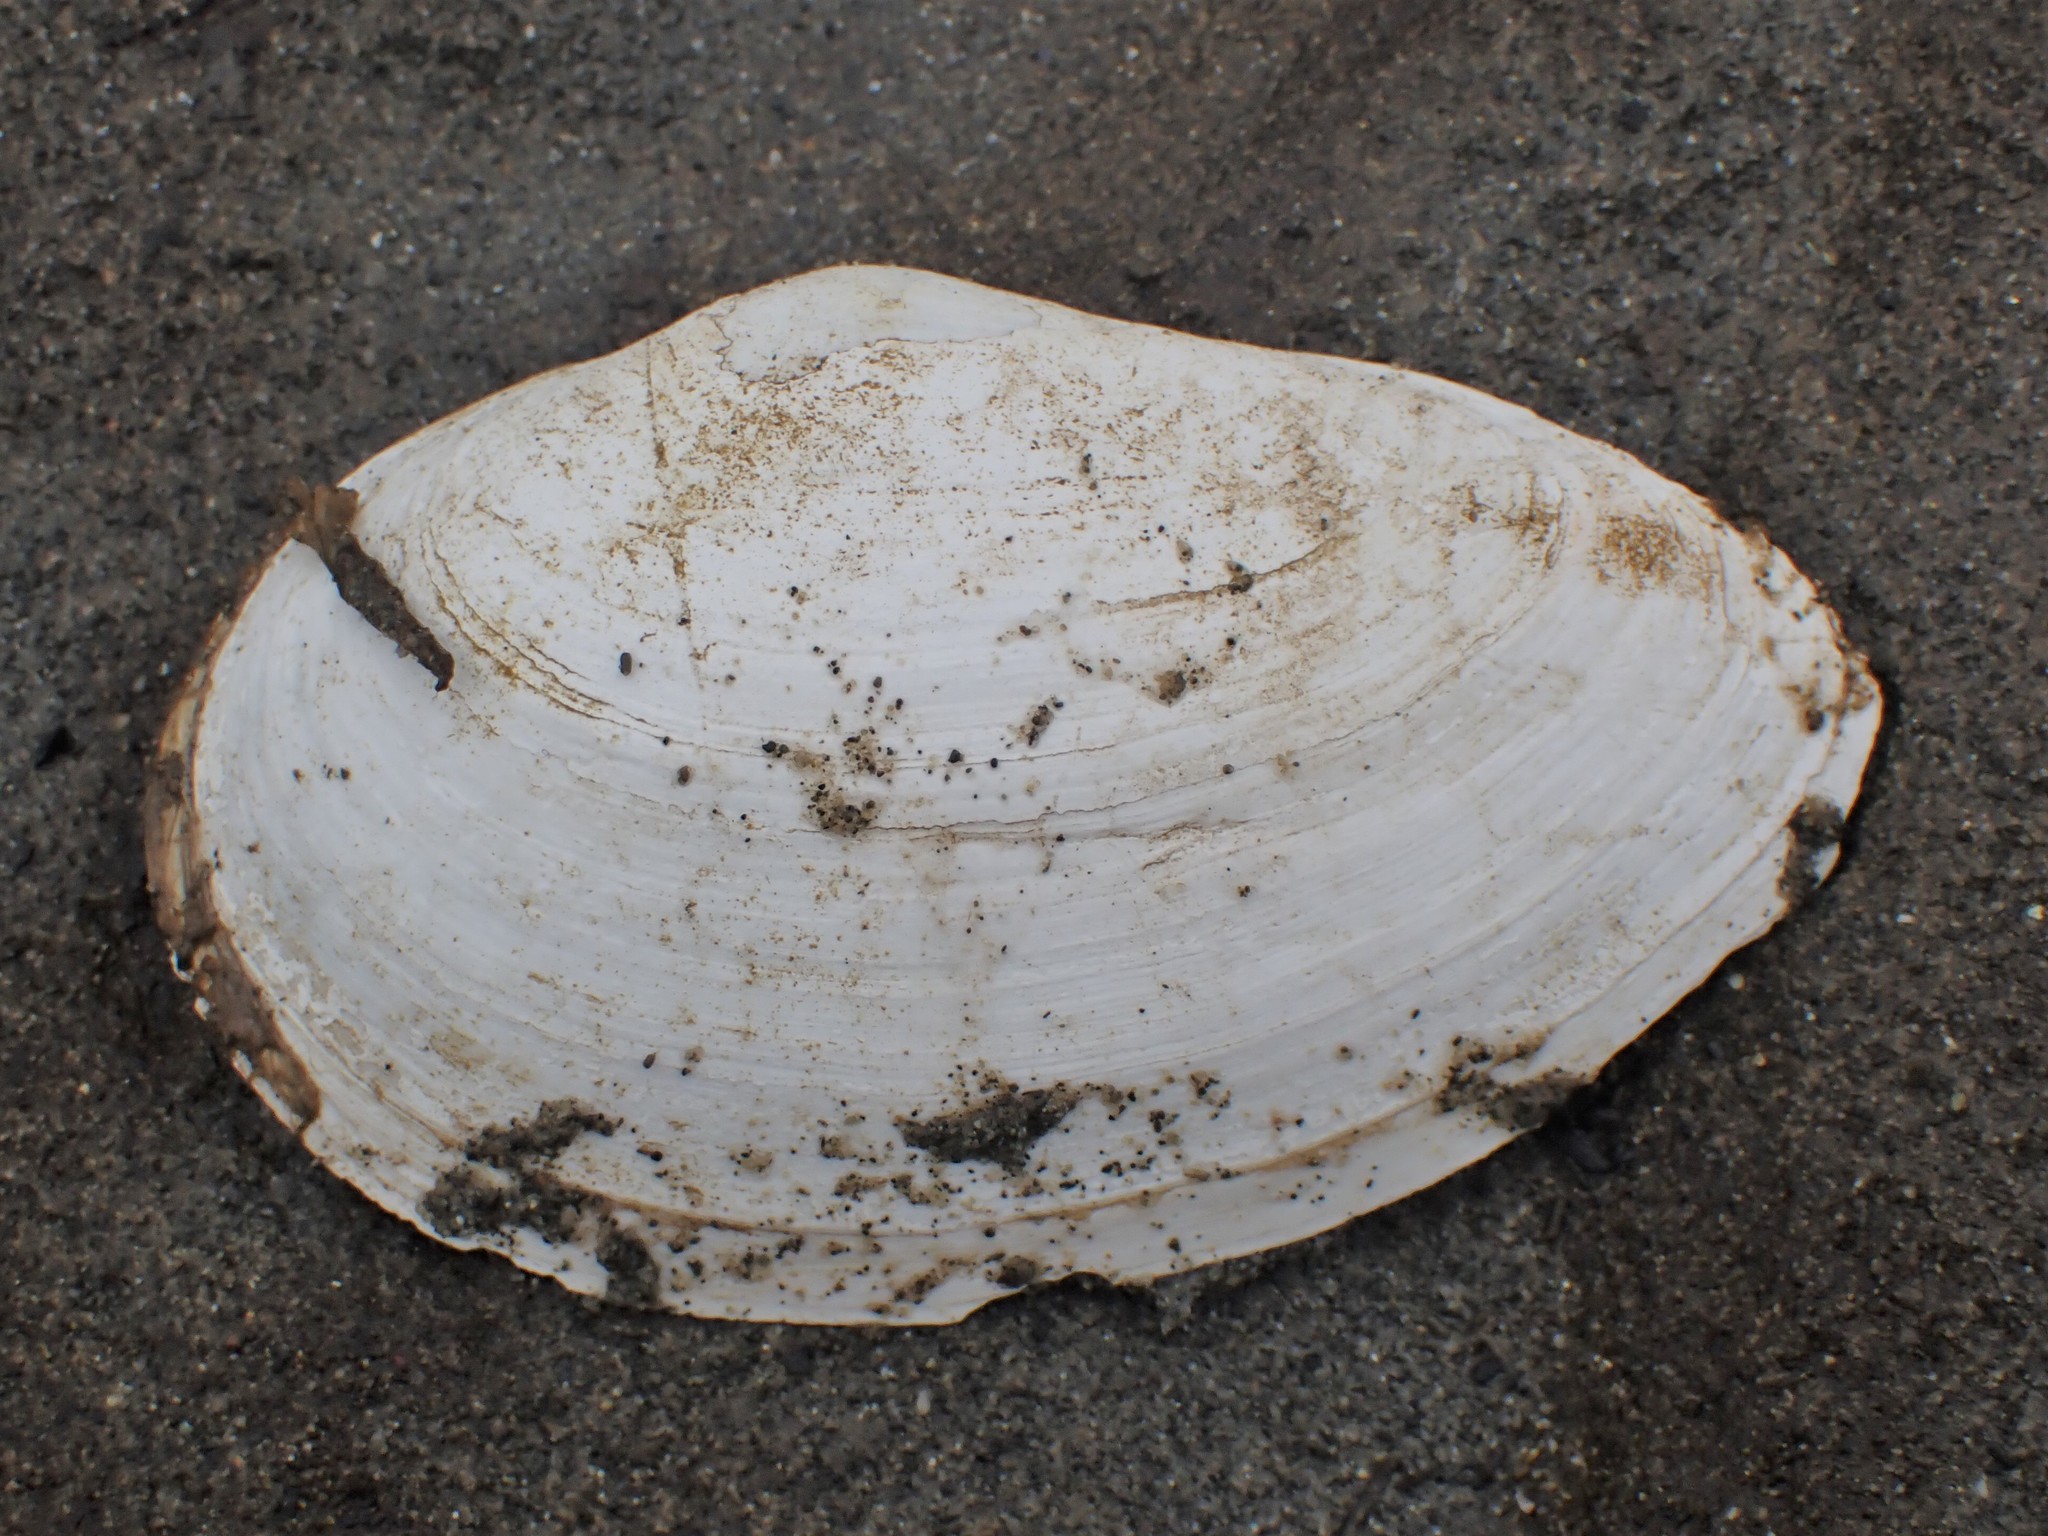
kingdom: Animalia
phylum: Mollusca
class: Bivalvia
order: Myida
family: Myidae
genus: Mya
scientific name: Mya arenaria
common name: Soft-shelled clam
